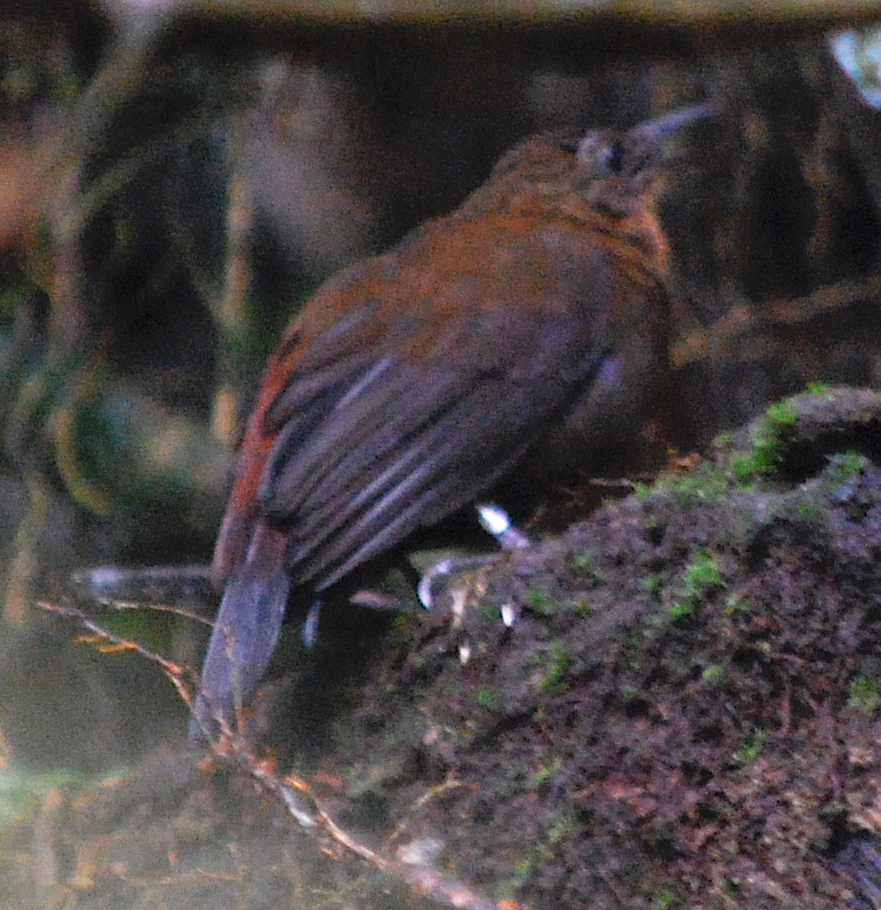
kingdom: Animalia
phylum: Chordata
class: Aves
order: Passeriformes
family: Furnariidae
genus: Sclerurus
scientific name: Sclerurus obscurior
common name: Dusky leaftosser
